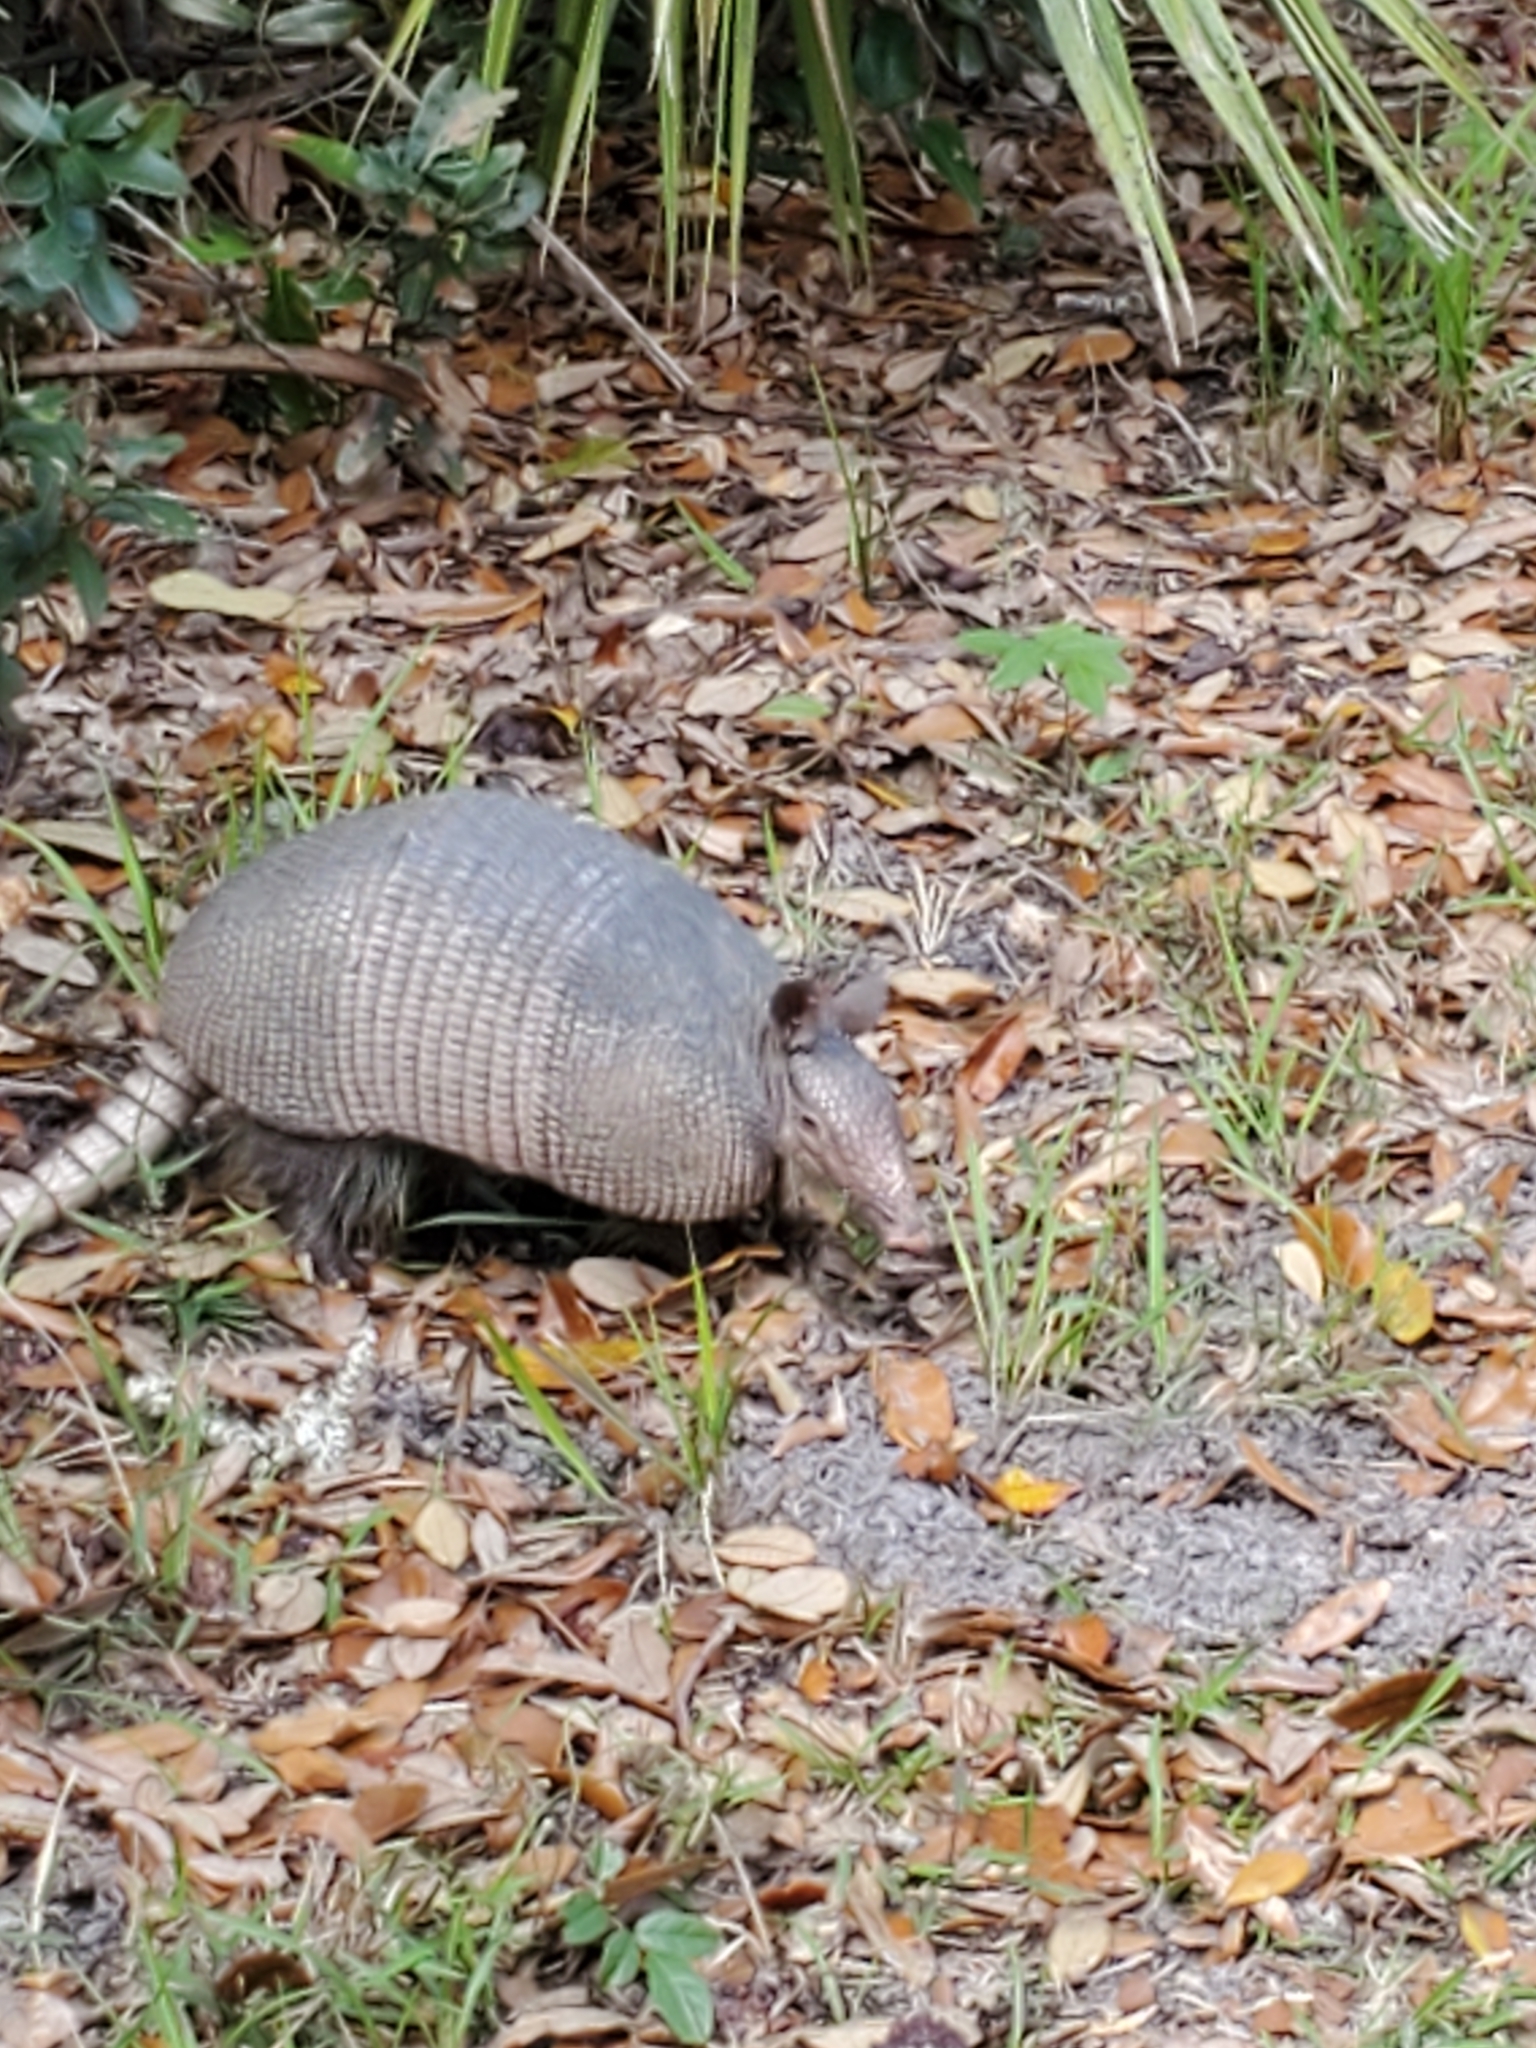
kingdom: Animalia
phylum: Chordata
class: Mammalia
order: Cingulata
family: Dasypodidae
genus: Dasypus
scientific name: Dasypus novemcinctus
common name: Nine-banded armadillo
